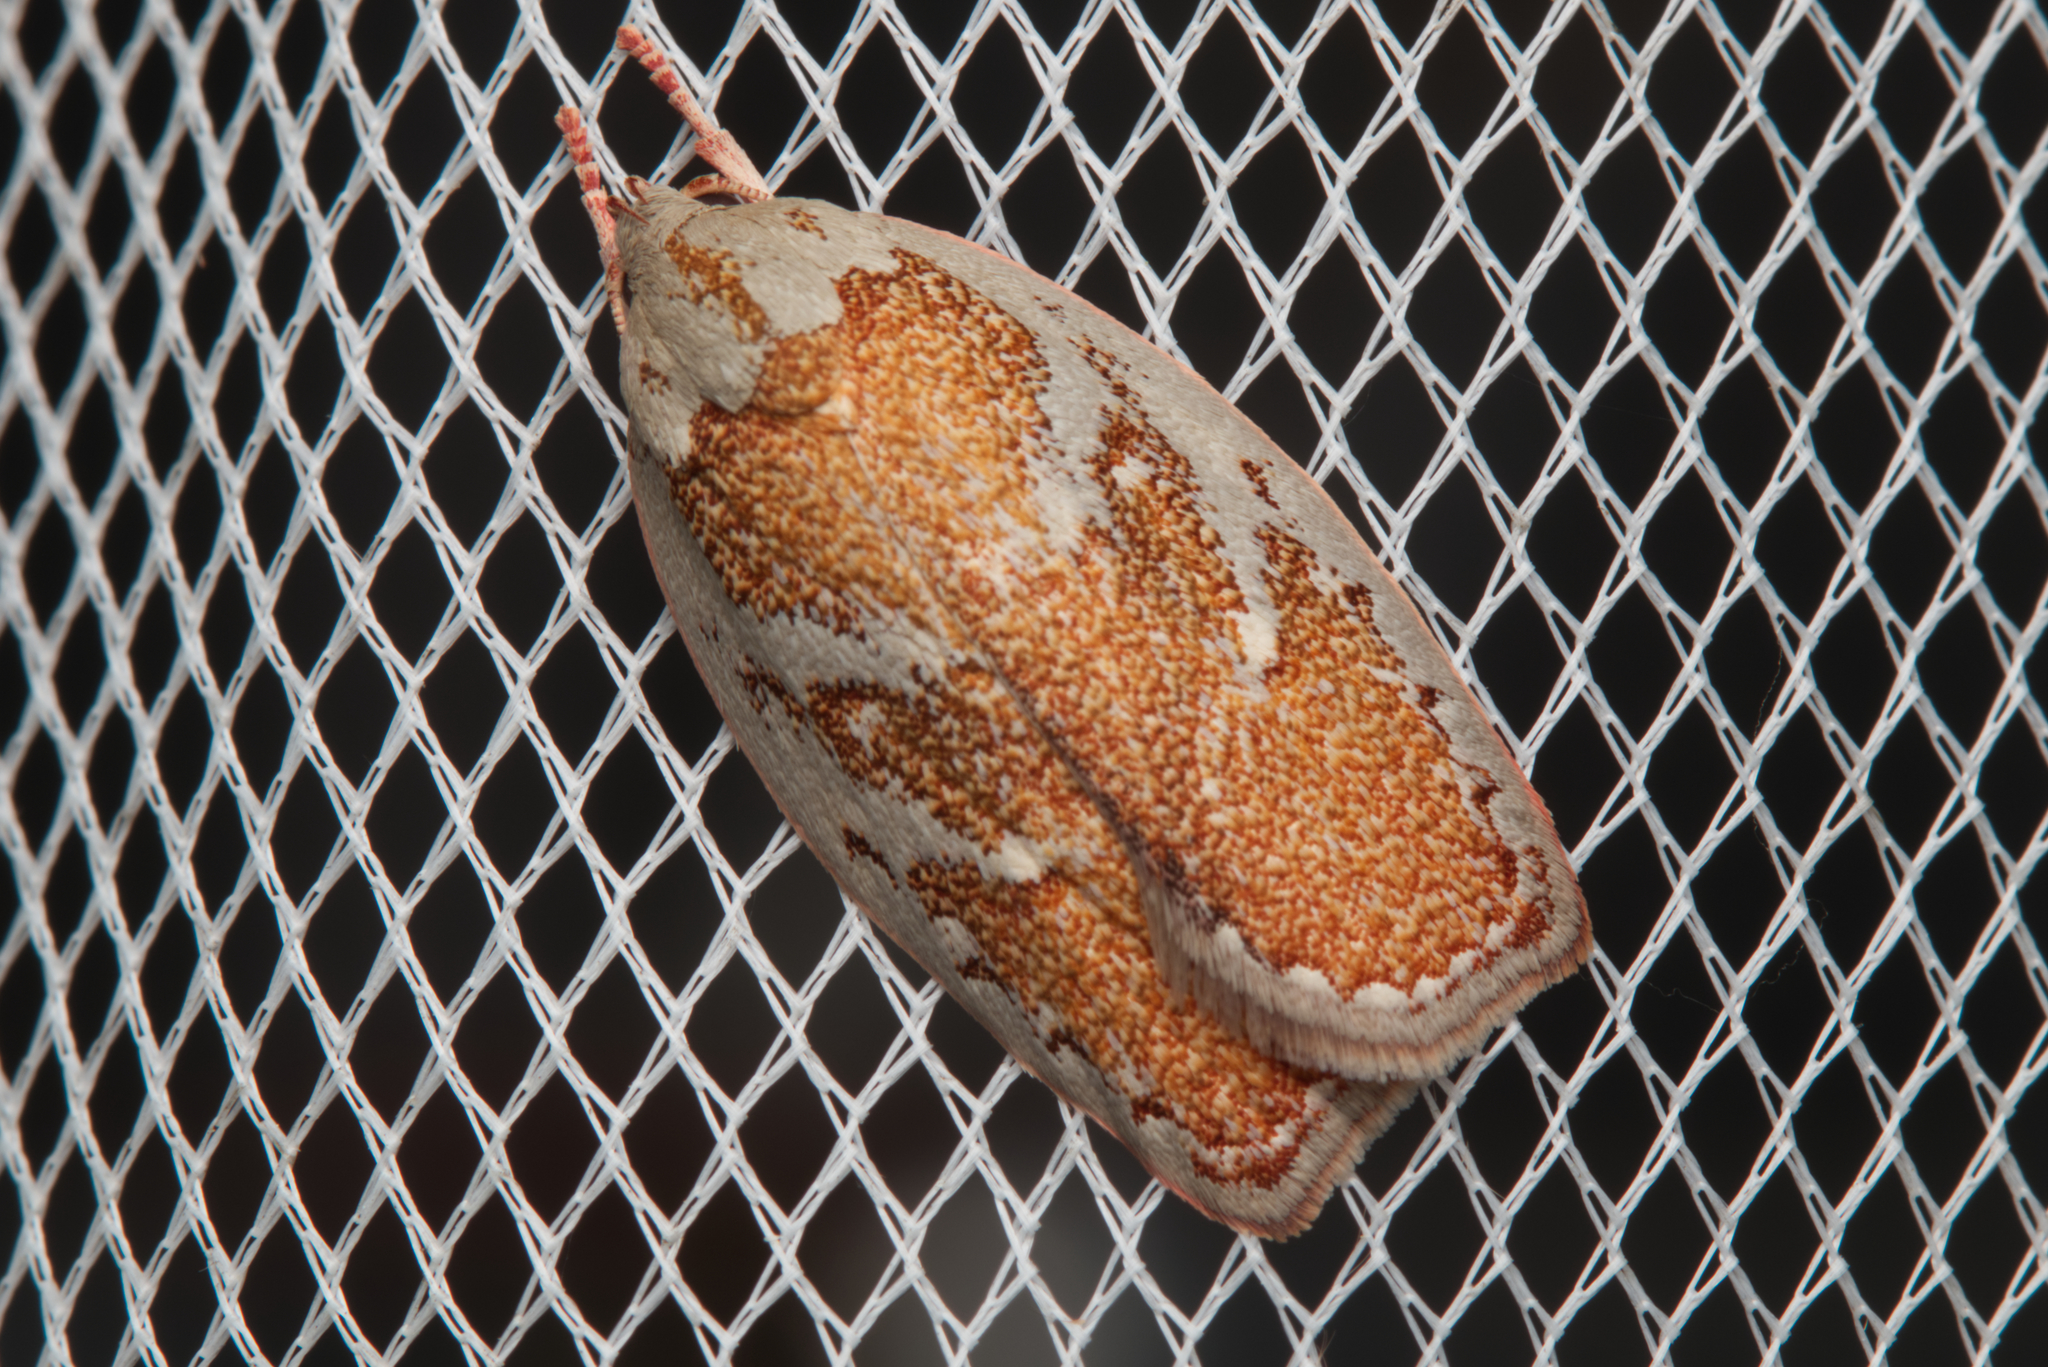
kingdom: Animalia
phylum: Arthropoda
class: Insecta
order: Lepidoptera
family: Oecophoridae
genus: Euchaetis
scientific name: Euchaetis rhizobola
